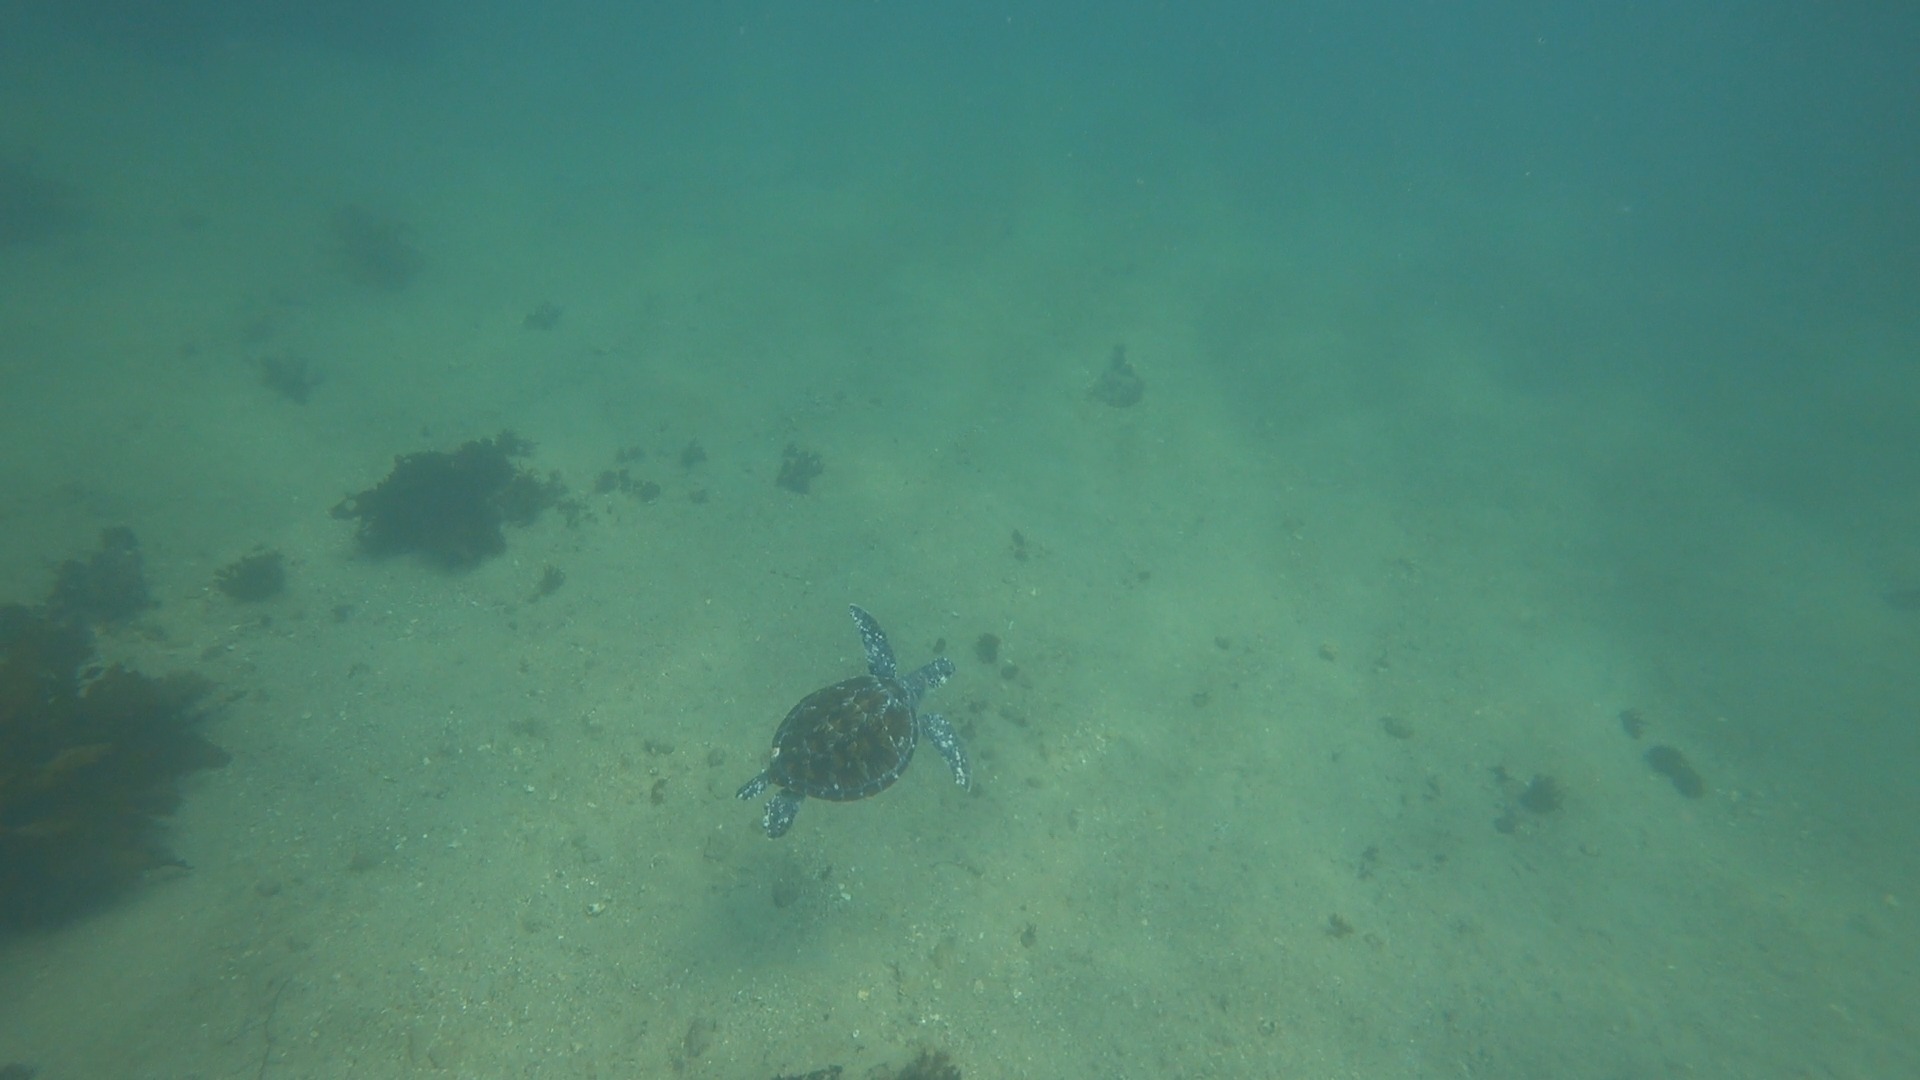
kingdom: Animalia
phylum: Chordata
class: Testudines
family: Cheloniidae
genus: Chelonia
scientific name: Chelonia mydas
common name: Green turtle
